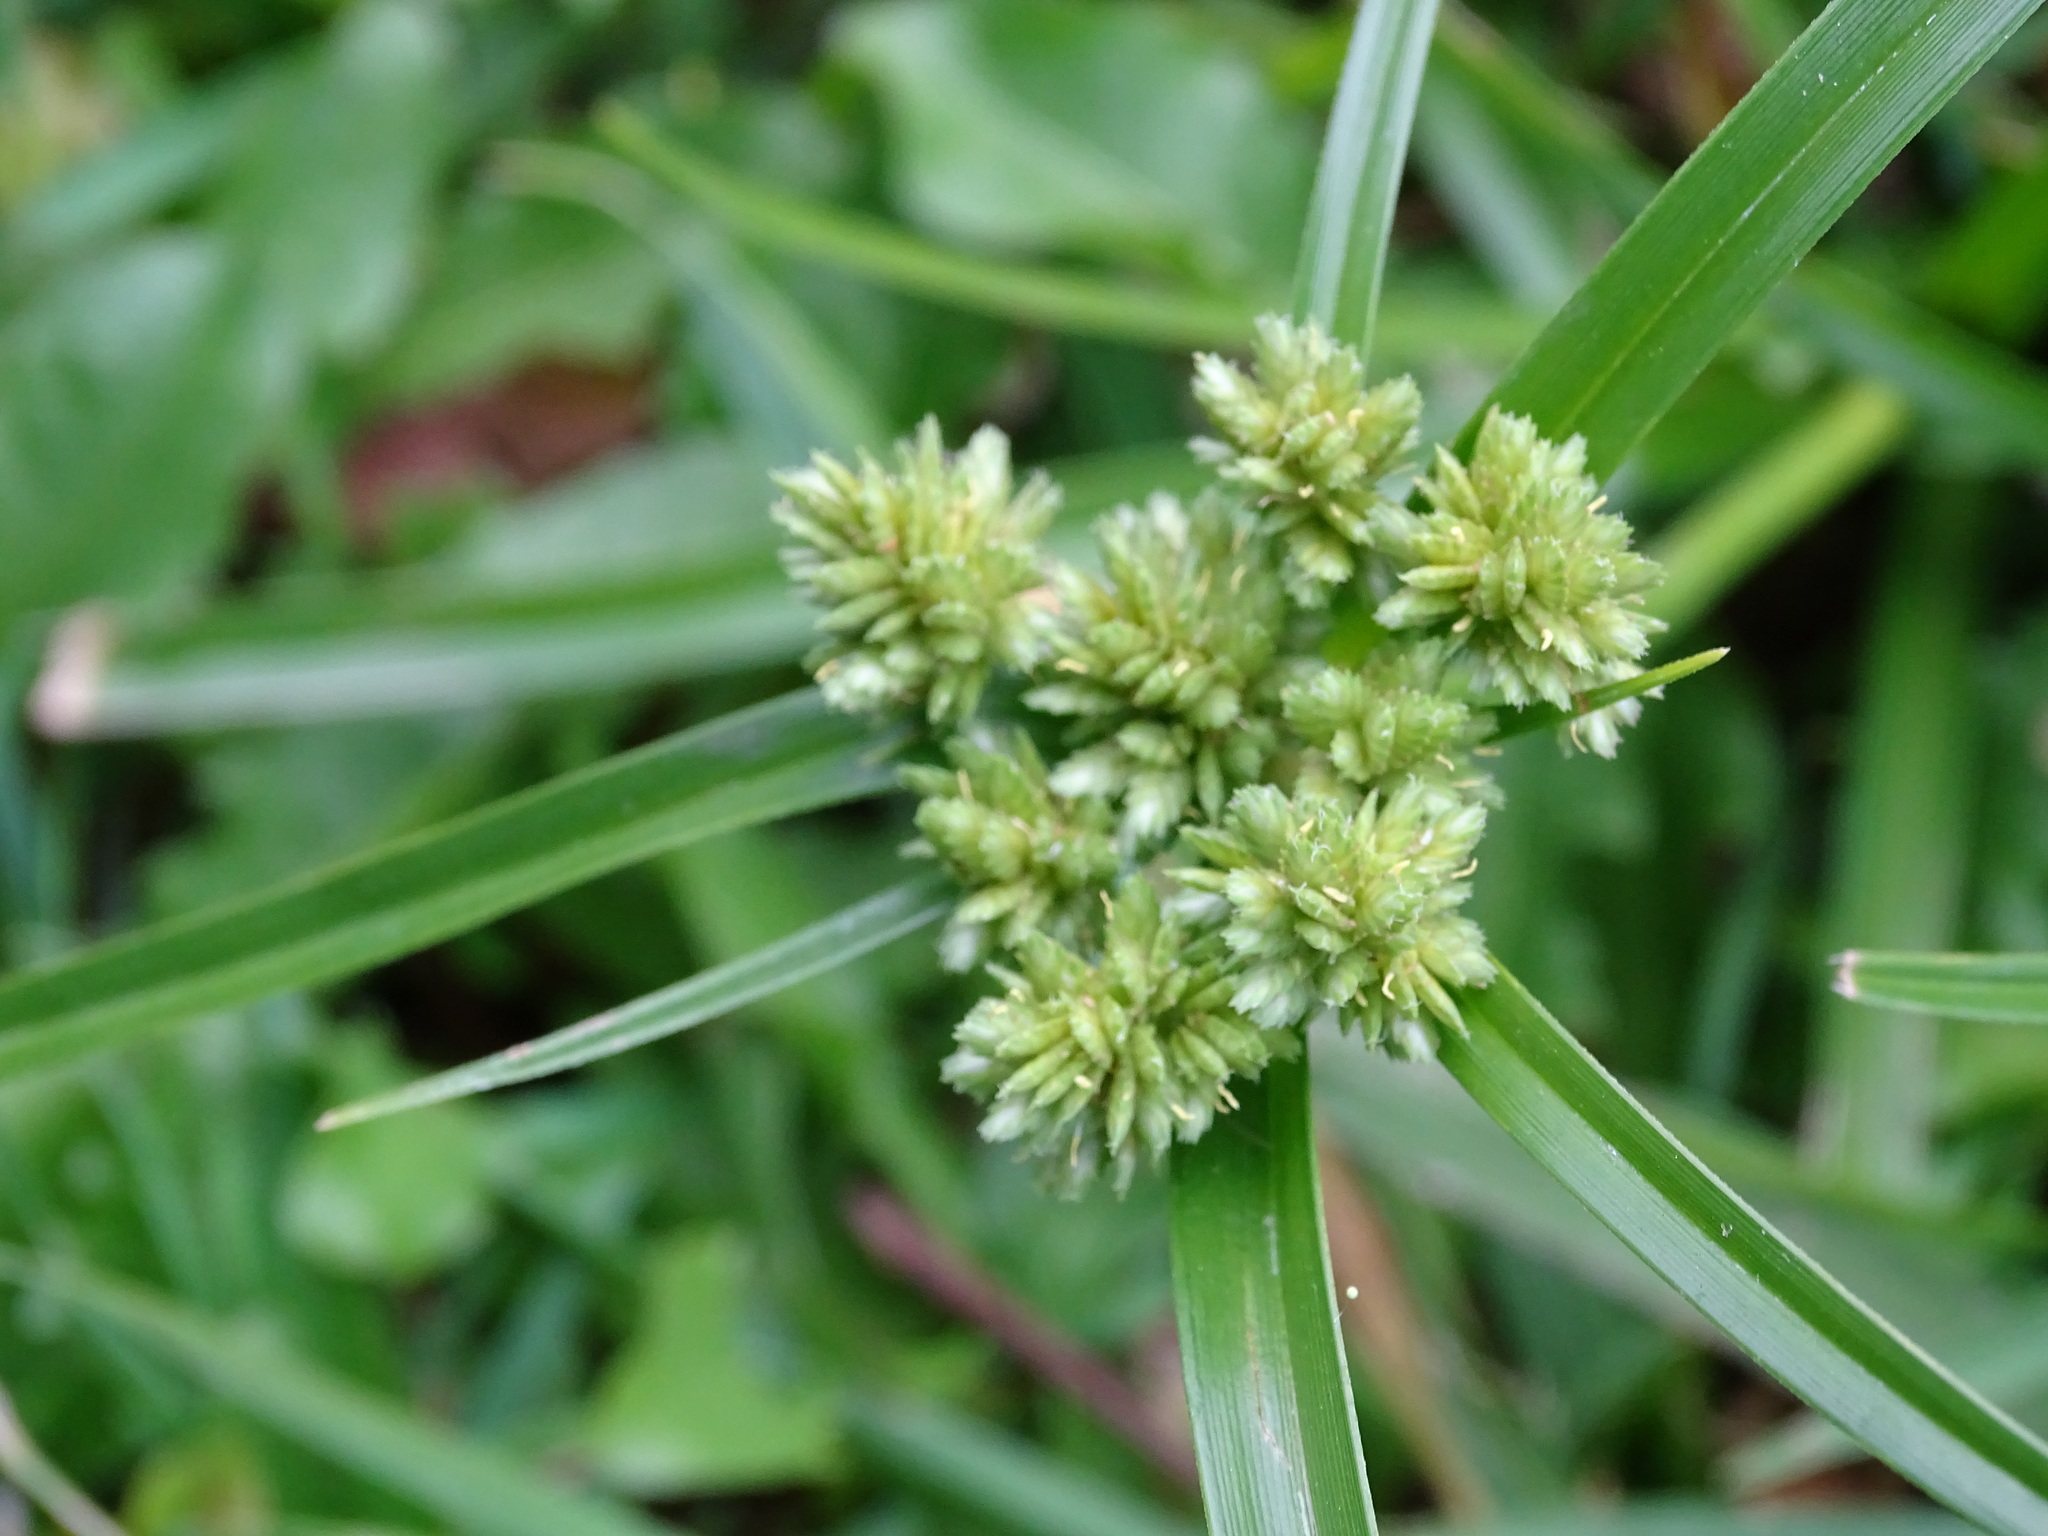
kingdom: Plantae
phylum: Tracheophyta
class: Liliopsida
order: Poales
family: Cyperaceae
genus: Cyperus
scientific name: Cyperus eragrostis
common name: Tall flatsedge
